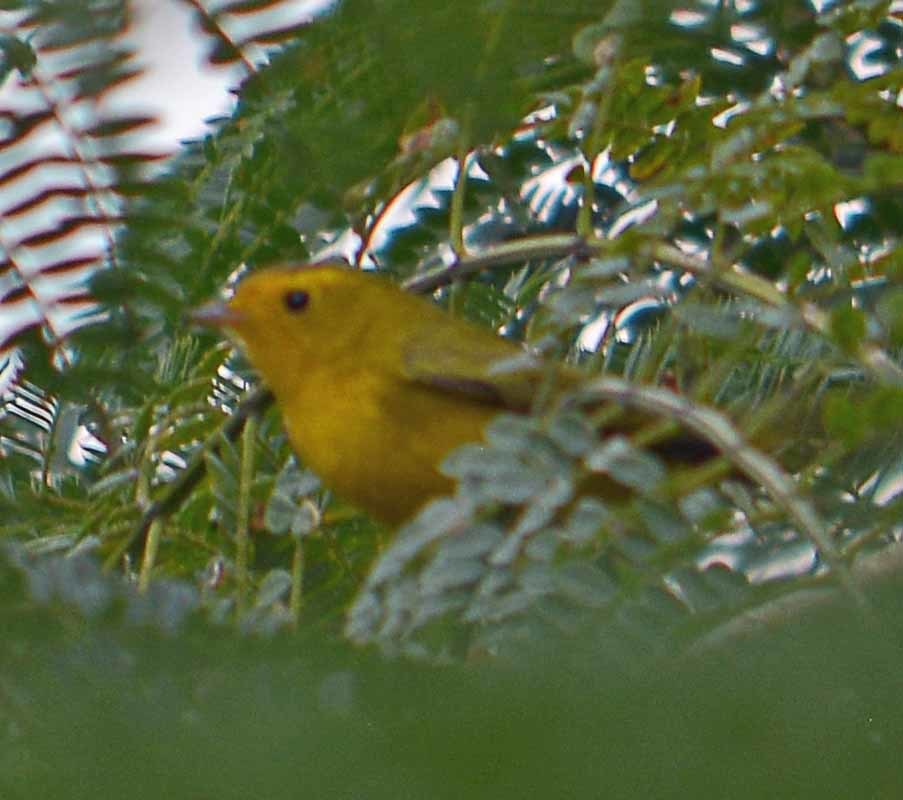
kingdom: Animalia
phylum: Chordata
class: Aves
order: Passeriformes
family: Parulidae
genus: Cardellina
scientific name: Cardellina pusilla
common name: Wilson's warbler
